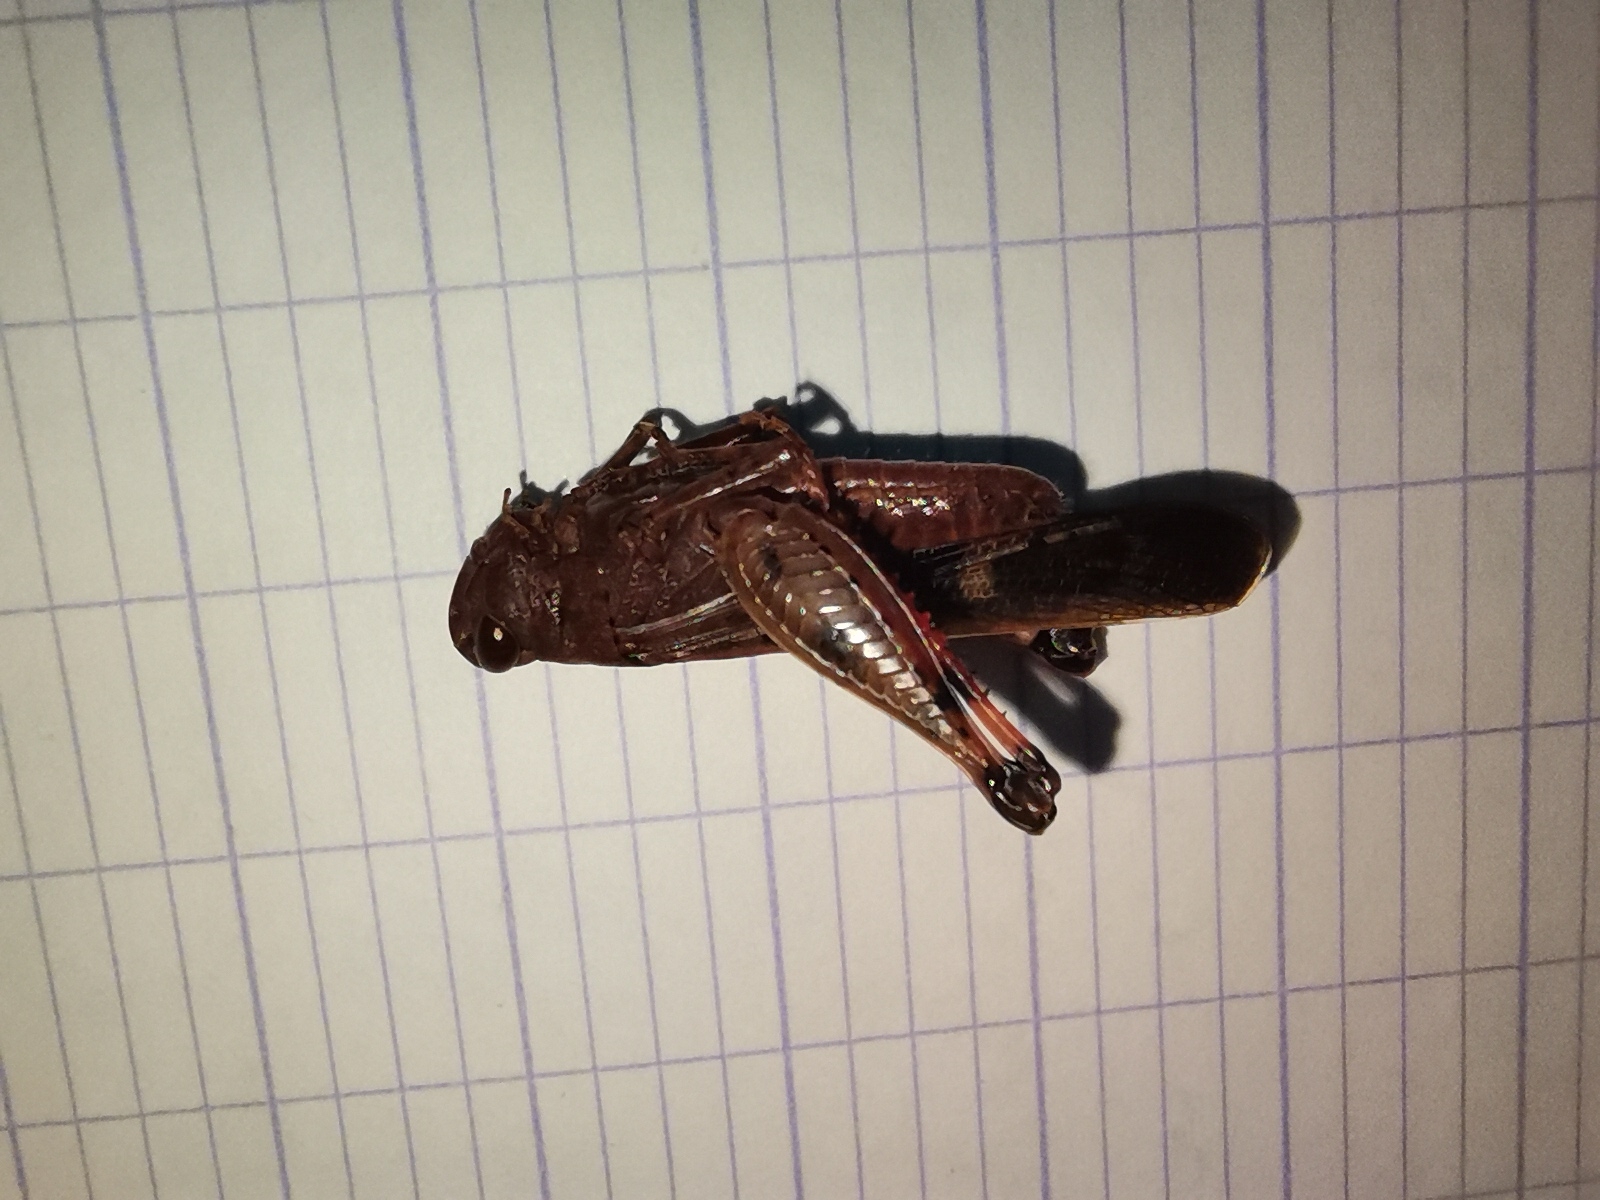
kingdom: Animalia
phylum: Arthropoda
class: Insecta
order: Orthoptera
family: Acrididae
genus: Aiolopus
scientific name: Aiolopus strepens
